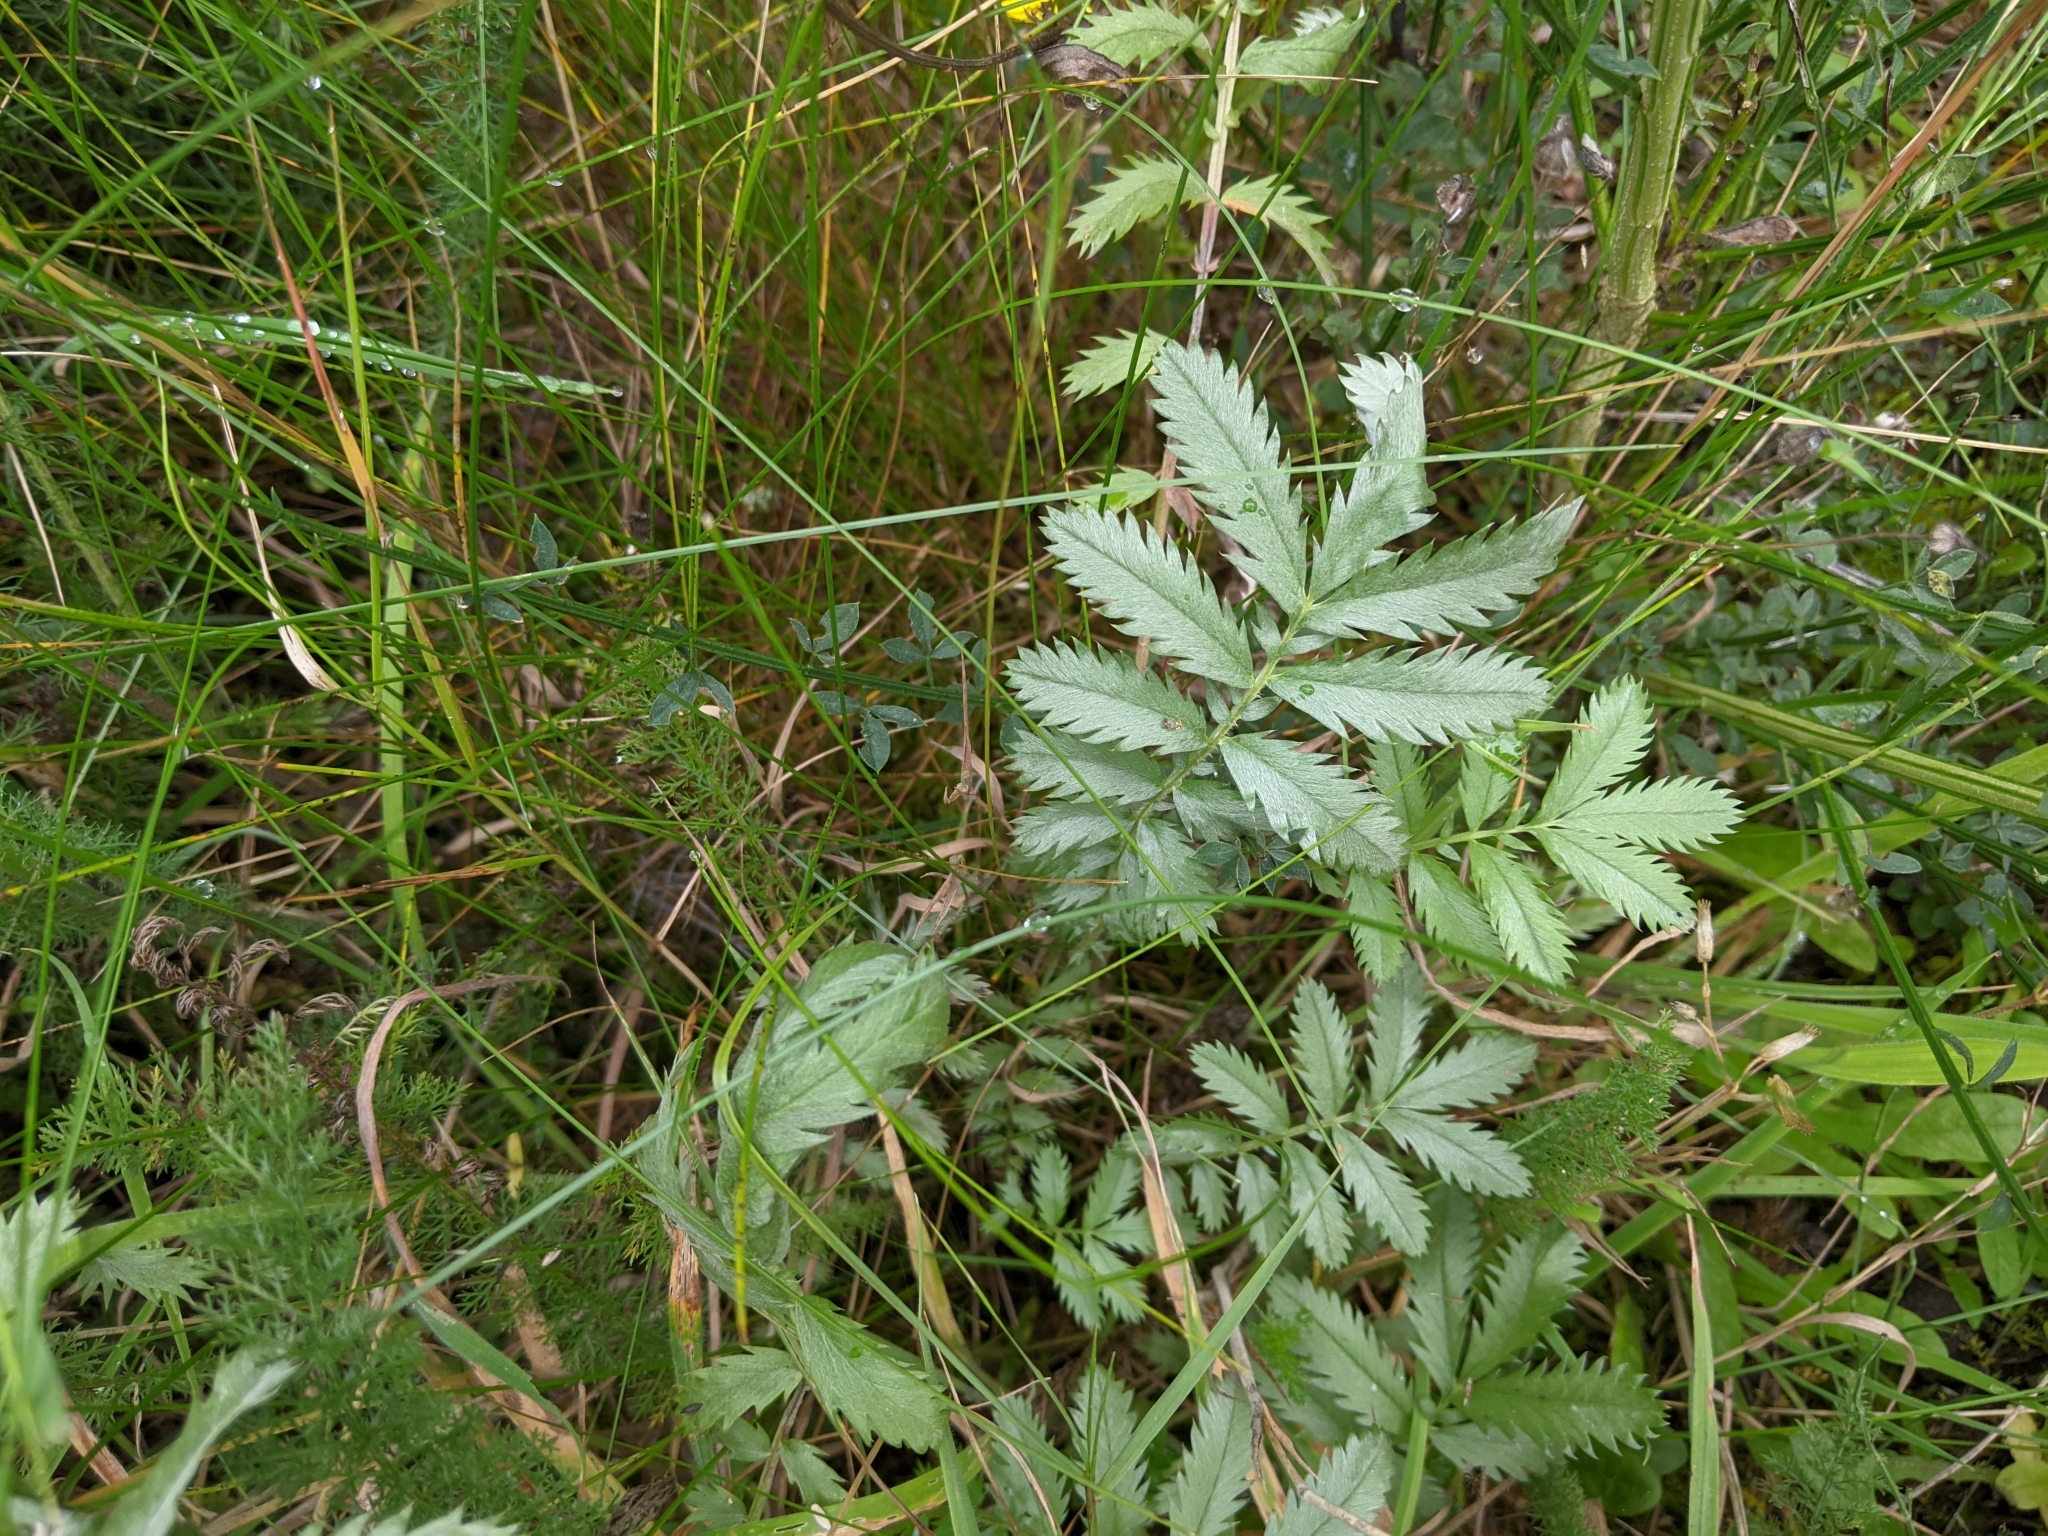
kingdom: Plantae
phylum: Tracheophyta
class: Magnoliopsida
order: Rosales
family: Rosaceae
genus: Argentina
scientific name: Argentina anserina
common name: Common silverweed
